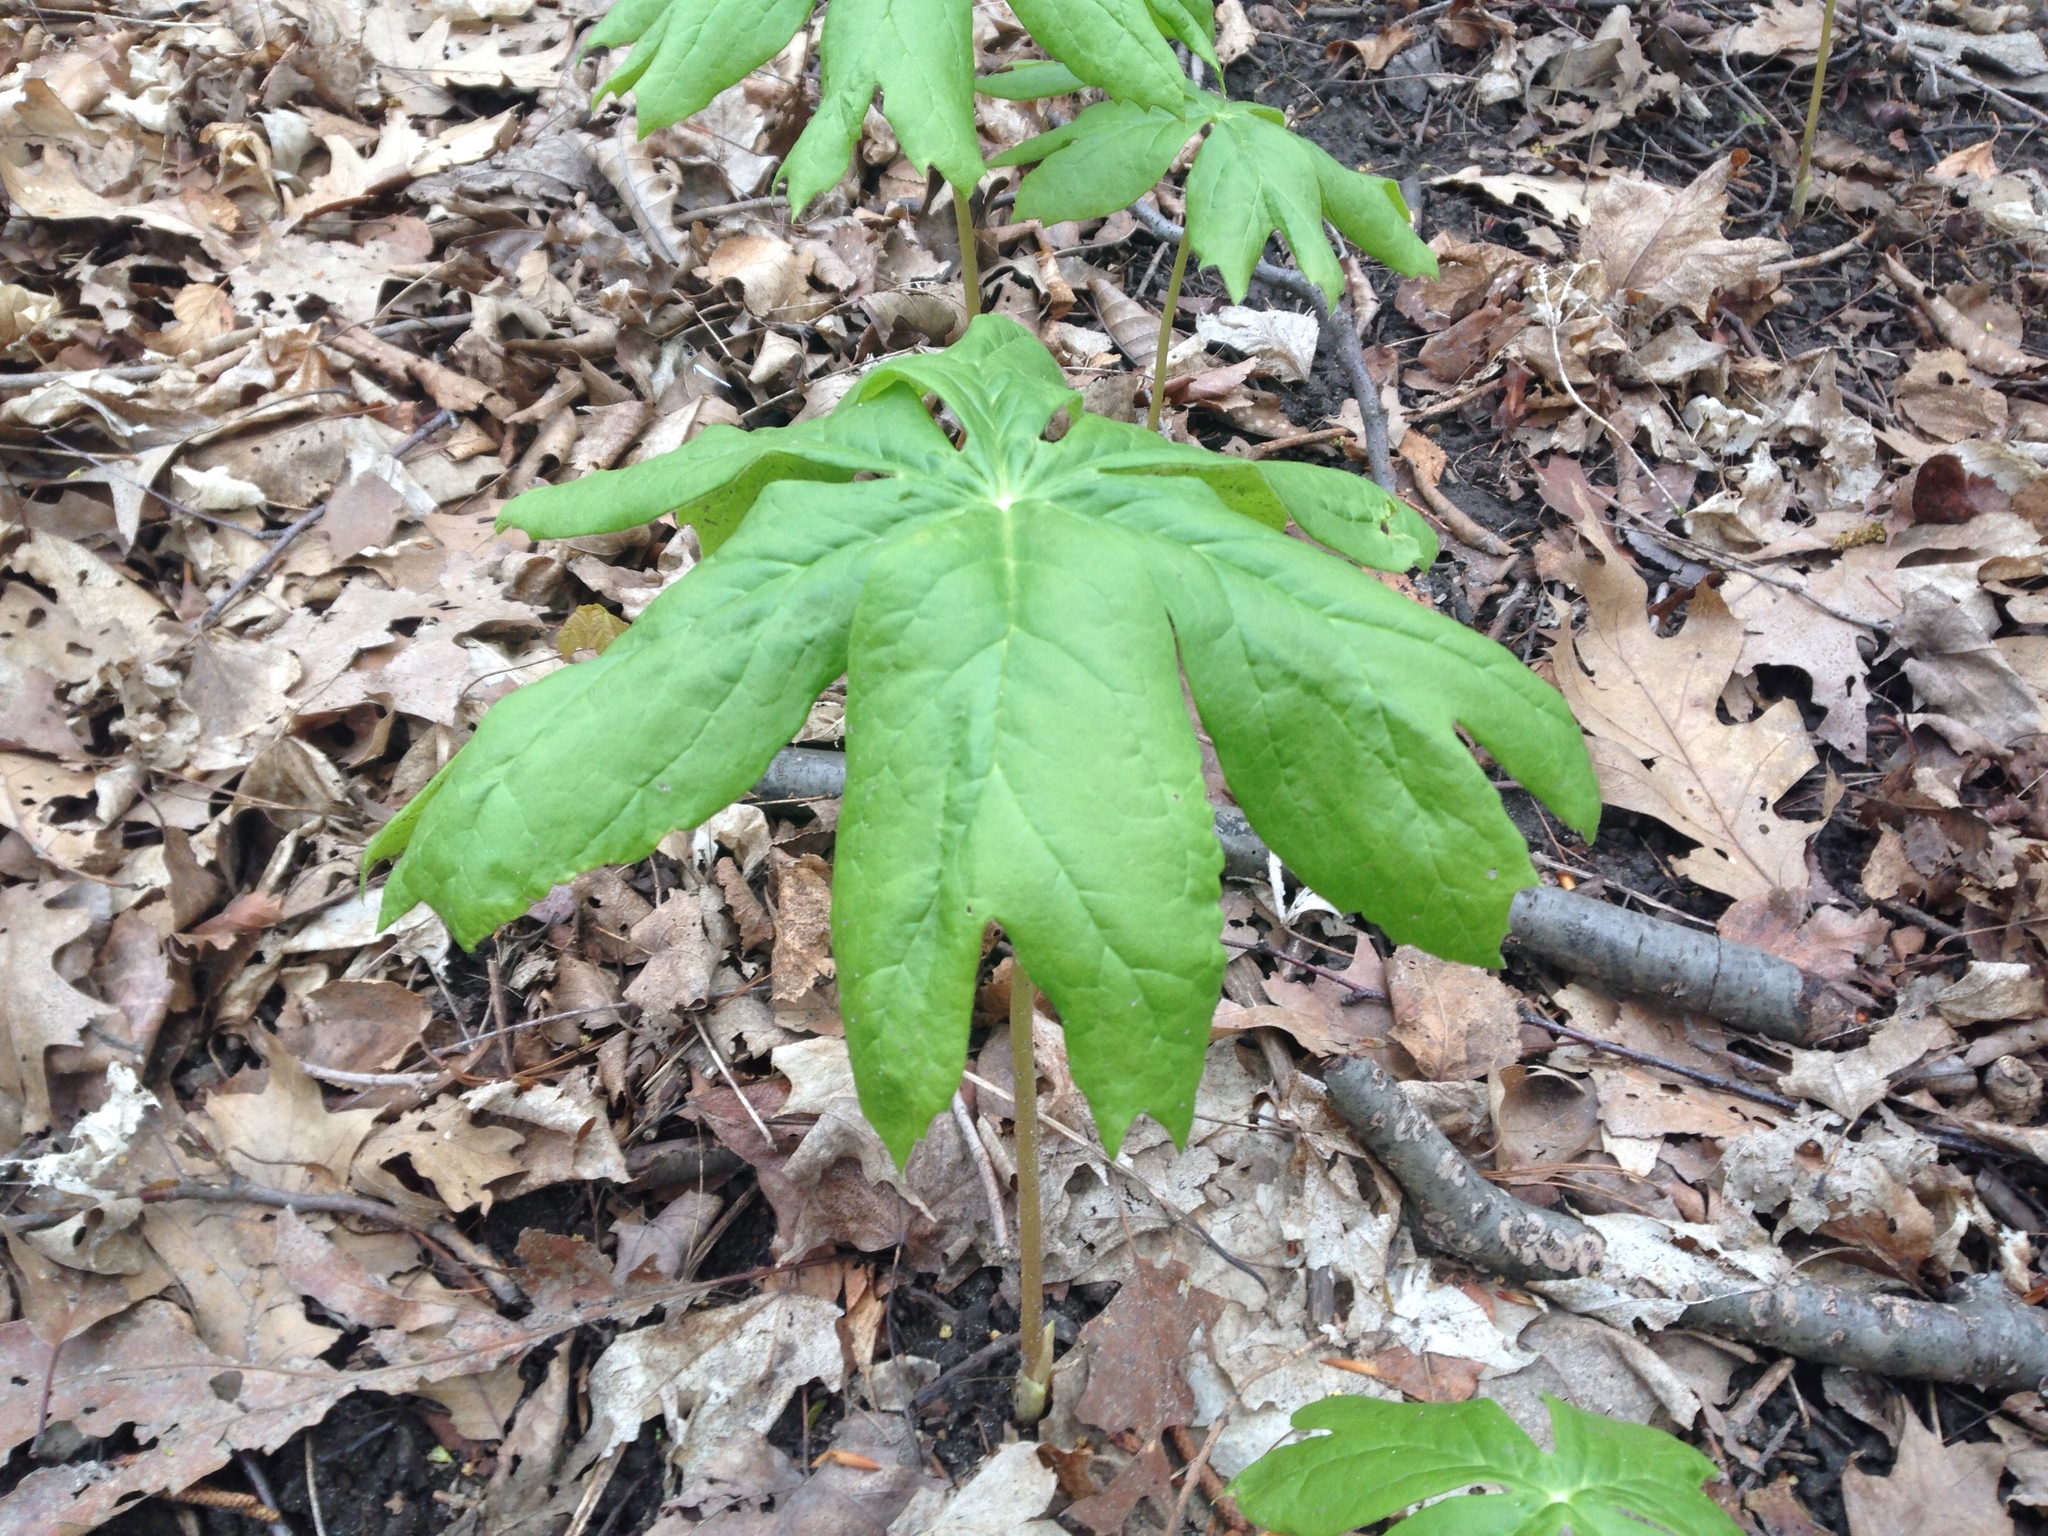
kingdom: Plantae
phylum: Tracheophyta
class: Magnoliopsida
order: Ranunculales
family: Berberidaceae
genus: Podophyllum
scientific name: Podophyllum peltatum
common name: Wild mandrake
